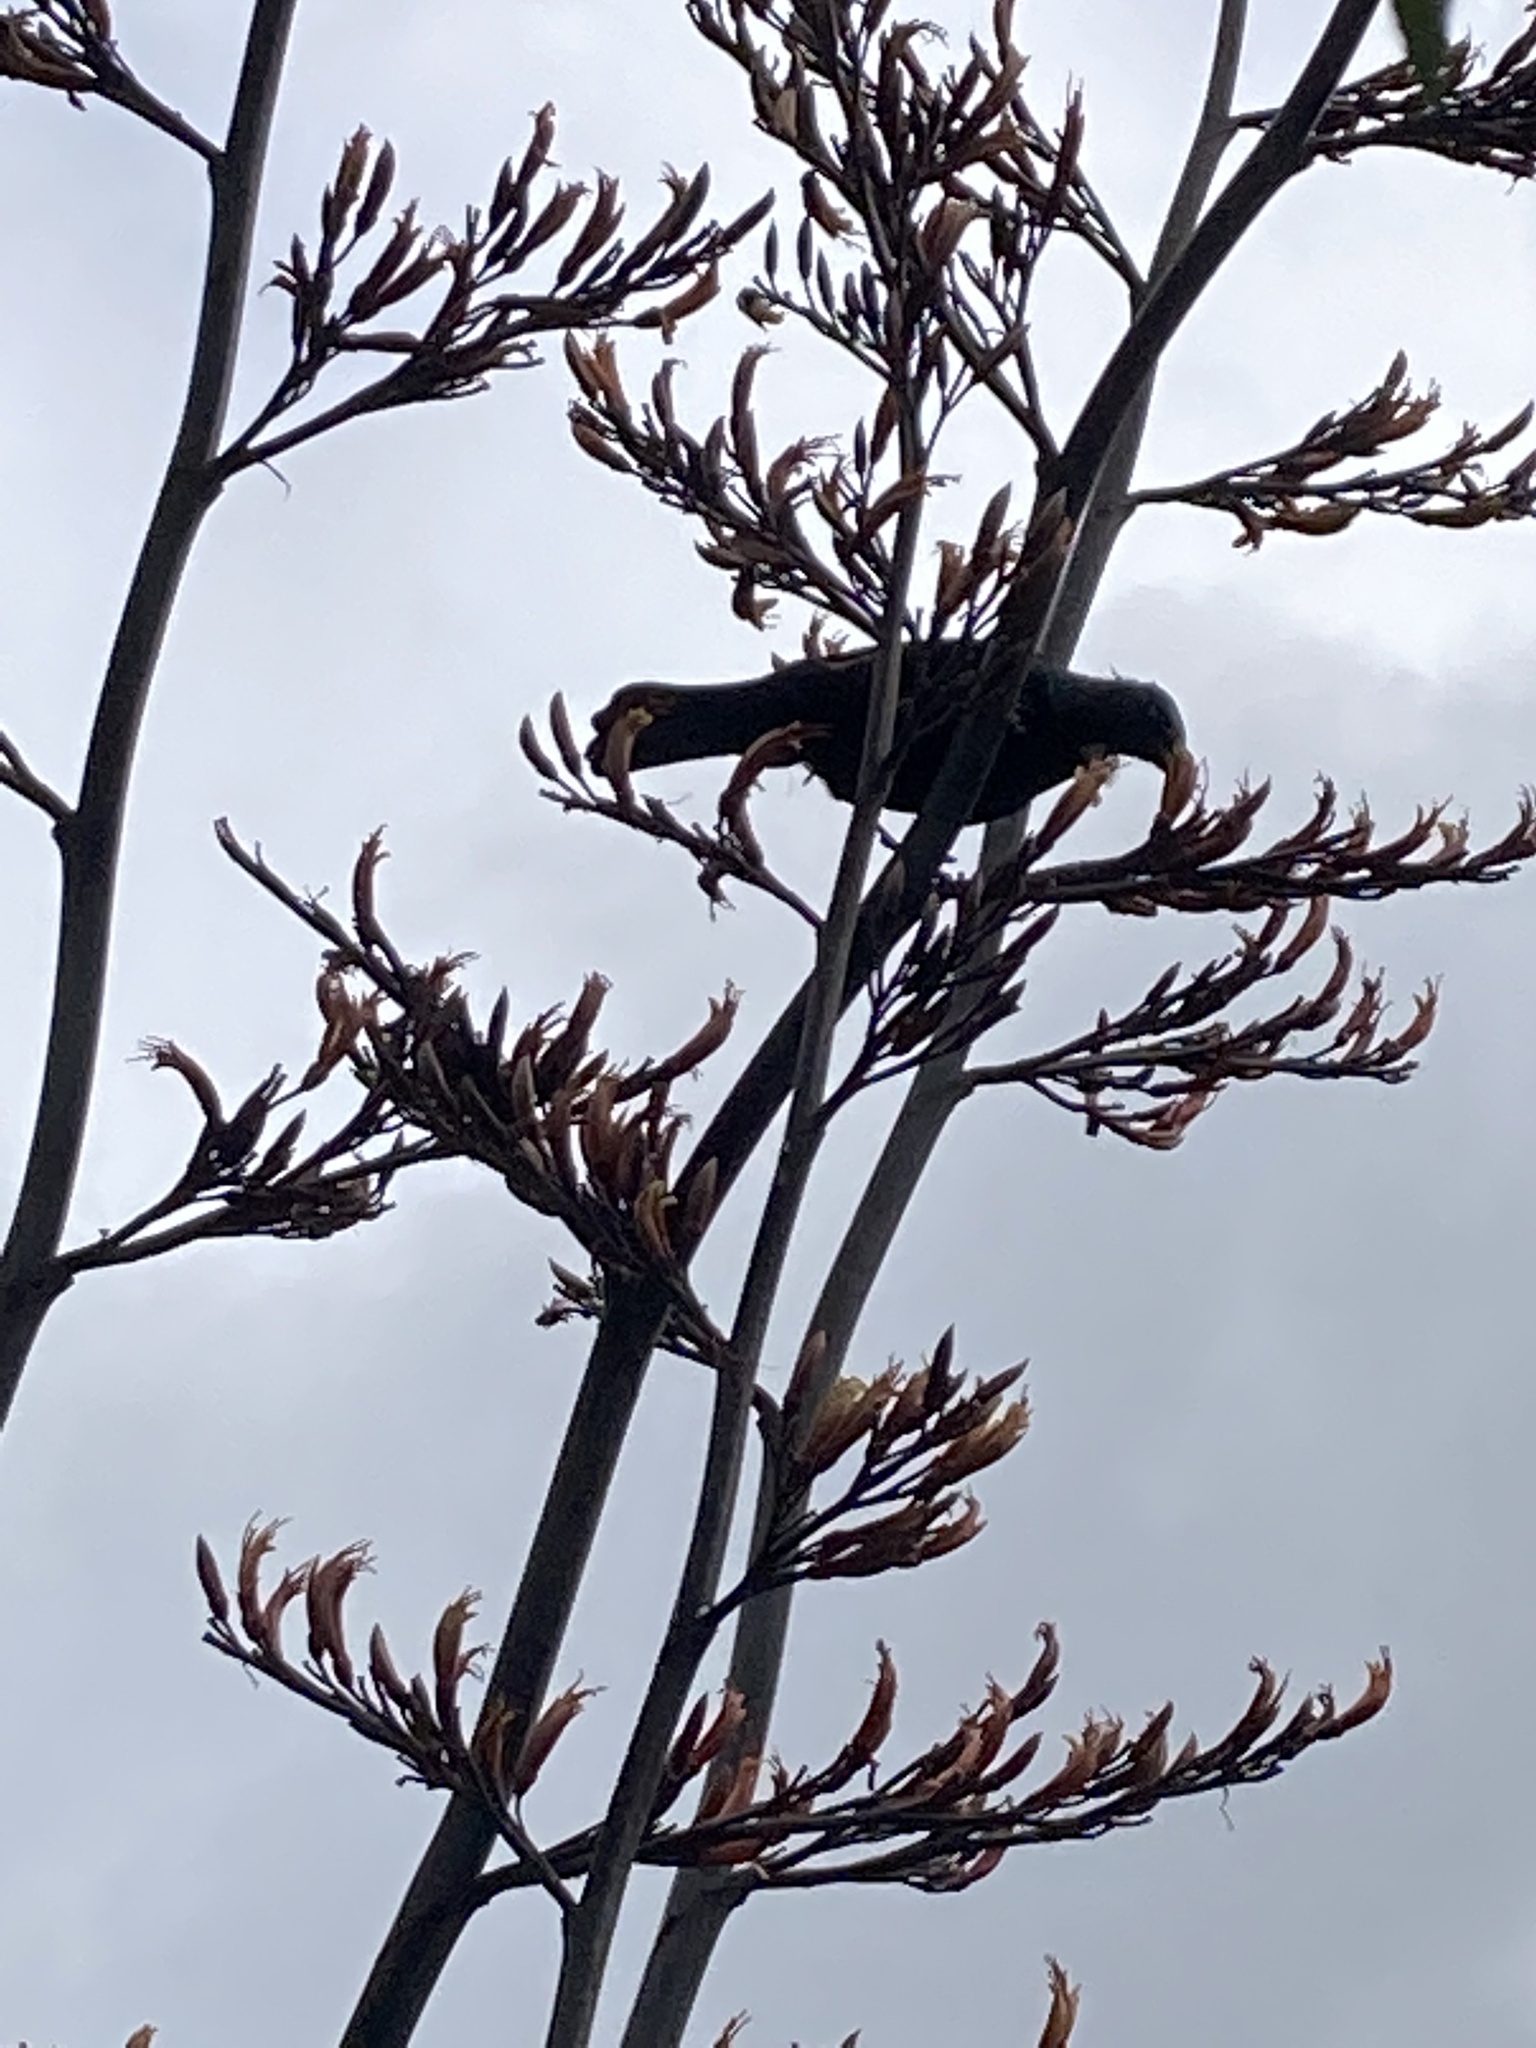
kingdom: Animalia
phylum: Chordata
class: Aves
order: Passeriformes
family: Meliphagidae
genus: Prosthemadera
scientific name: Prosthemadera novaeseelandiae
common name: Tui
